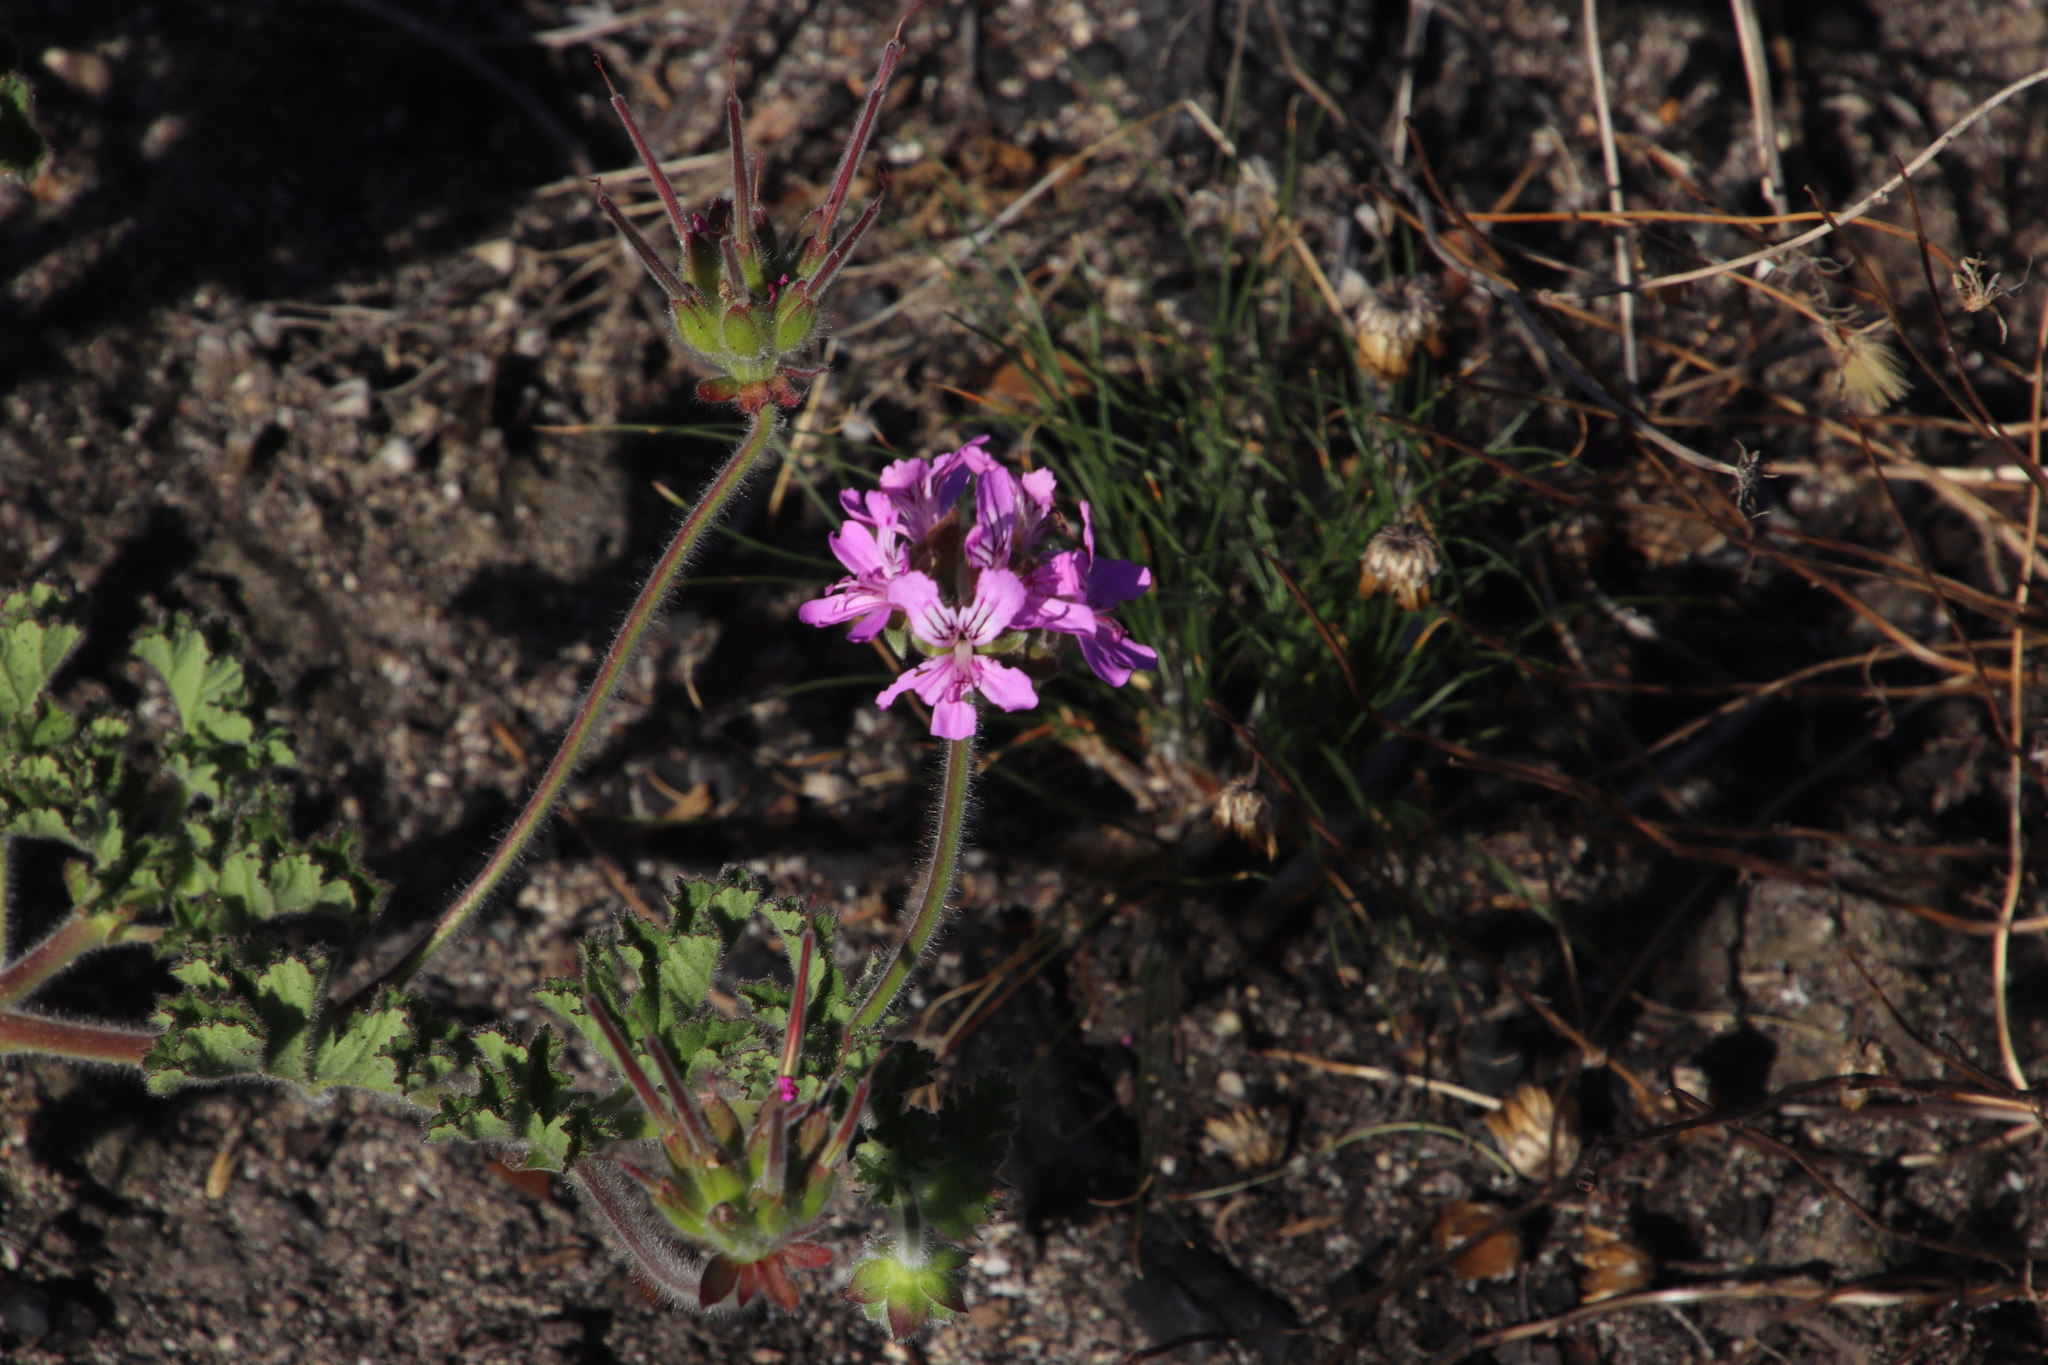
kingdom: Plantae
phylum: Tracheophyta
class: Magnoliopsida
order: Geraniales
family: Geraniaceae
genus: Pelargonium
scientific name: Pelargonium capitatum
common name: Rose scented geranium
